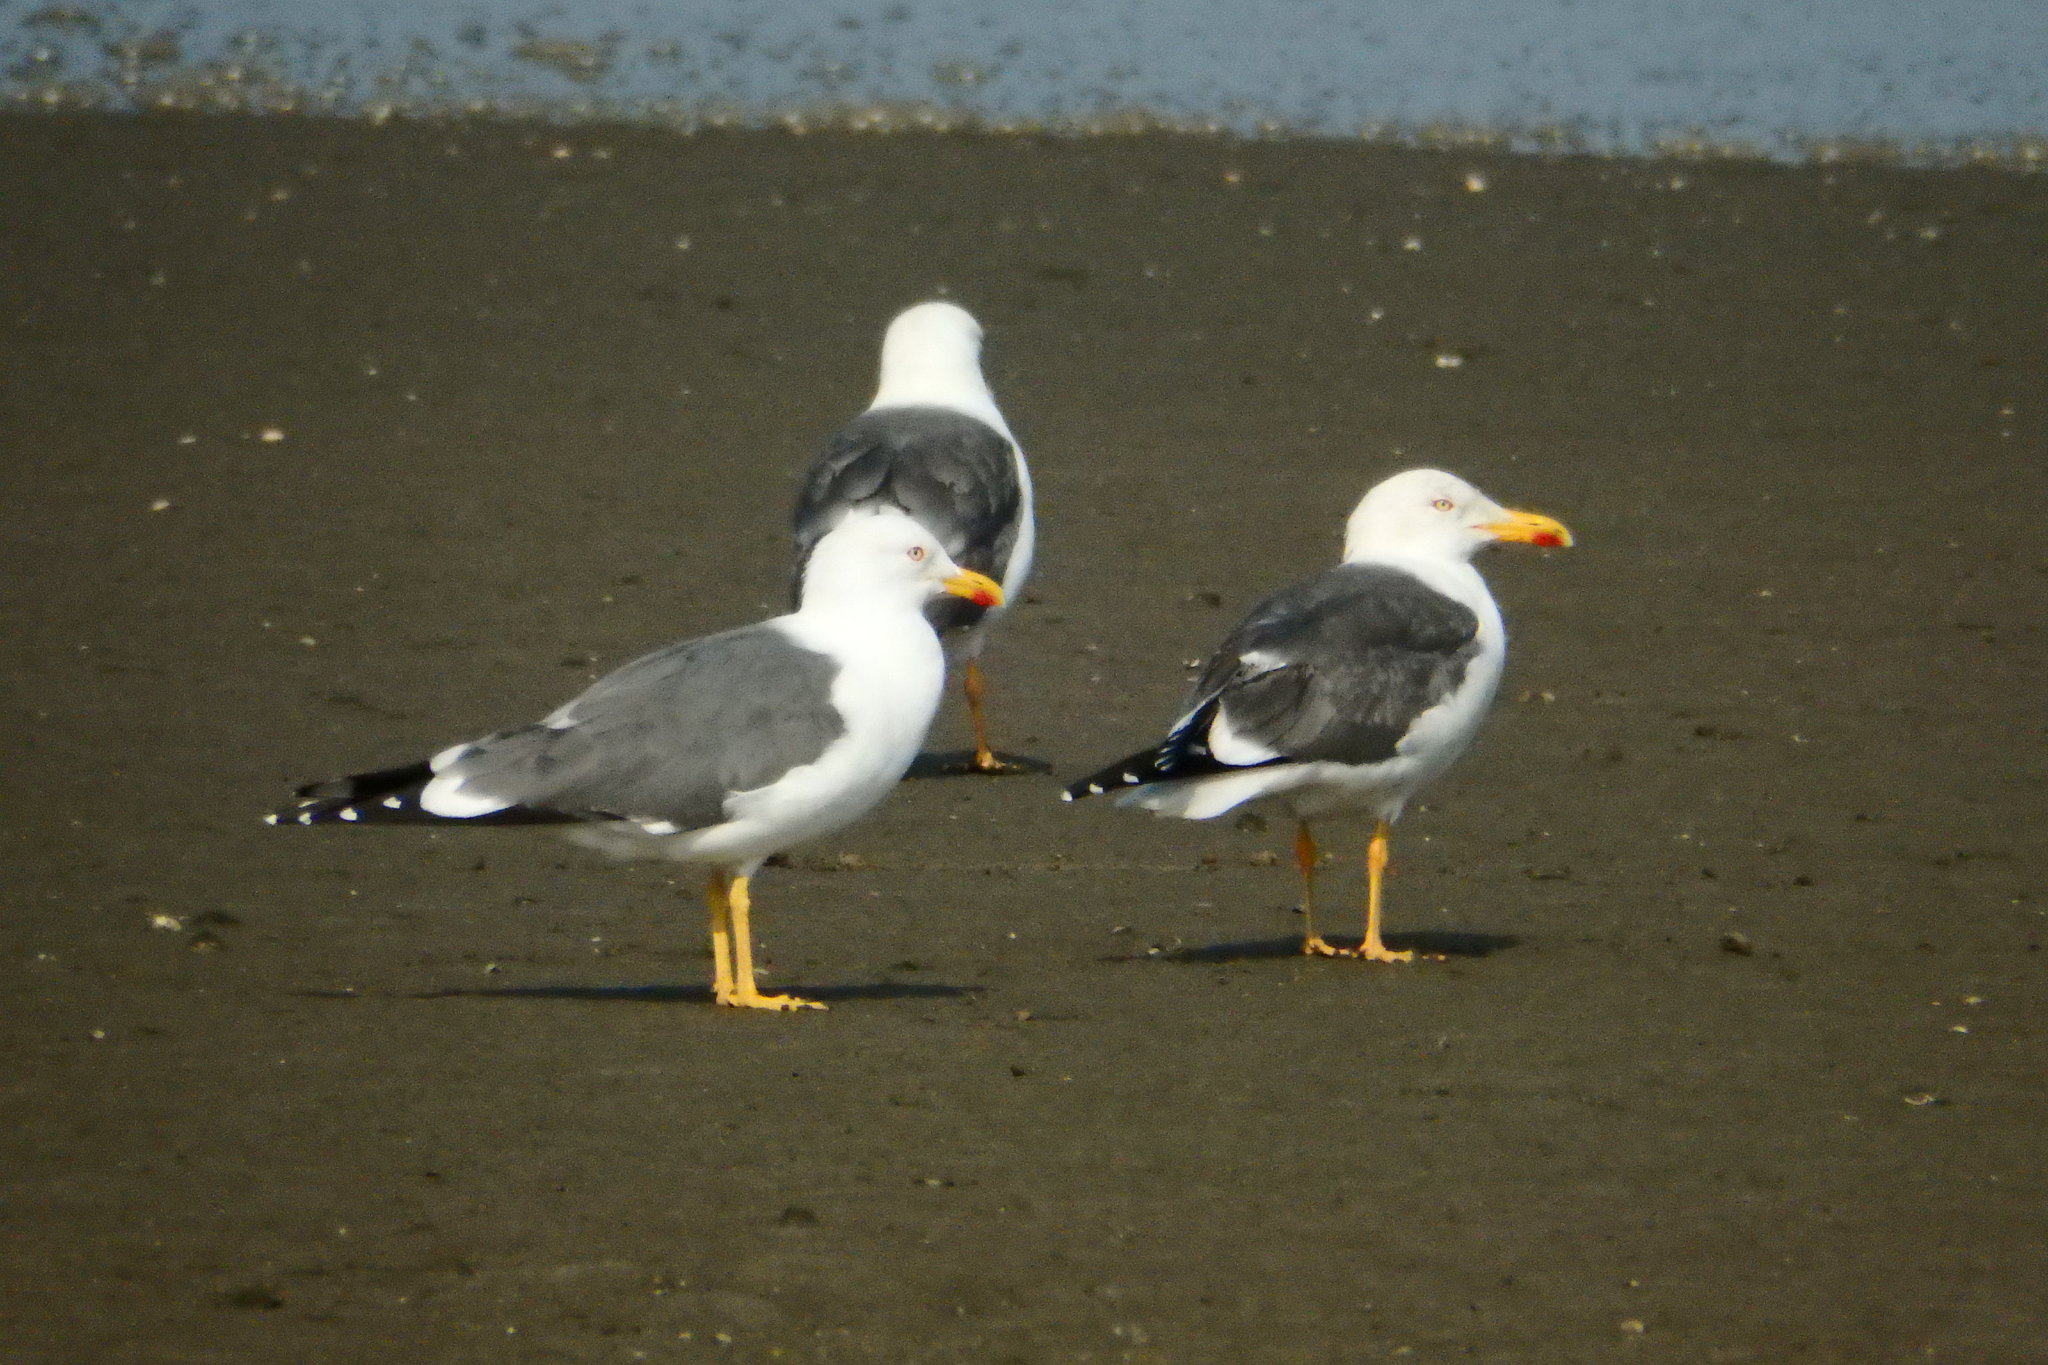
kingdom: Animalia
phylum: Chordata
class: Aves
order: Charadriiformes
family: Laridae
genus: Larus
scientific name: Larus michahellis
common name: Yellow-legged gull
